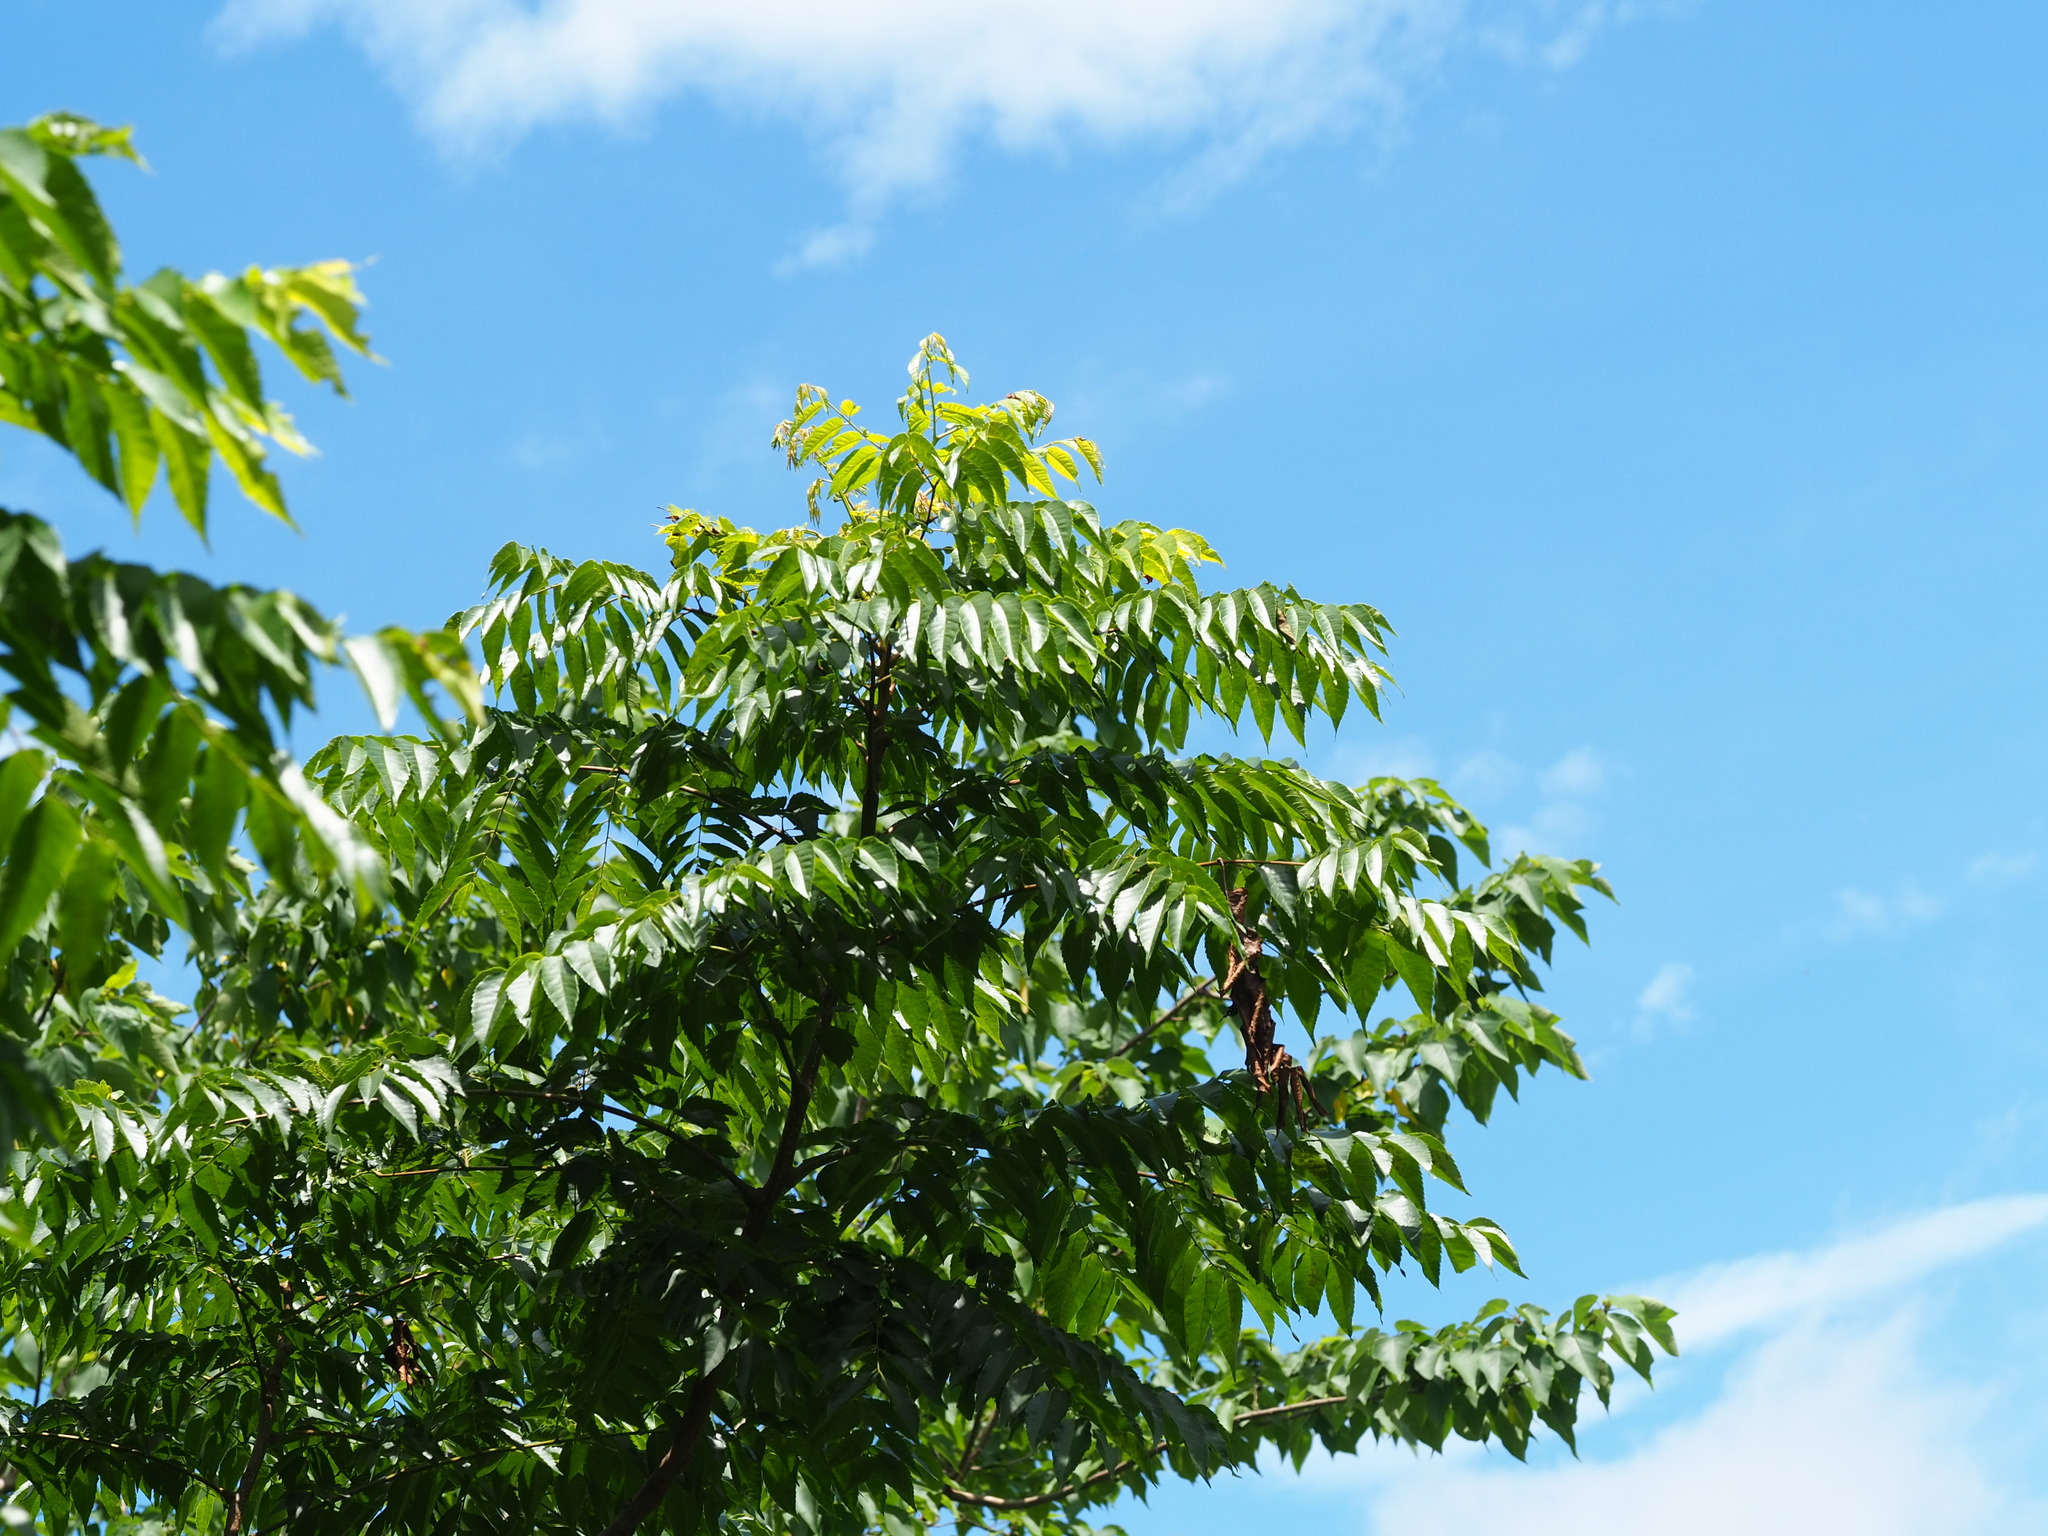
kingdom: Plantae
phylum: Tracheophyta
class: Magnoliopsida
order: Sapindales
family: Sapindaceae
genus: Koelreuteria
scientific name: Koelreuteria elegans
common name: Chinese flame tree
